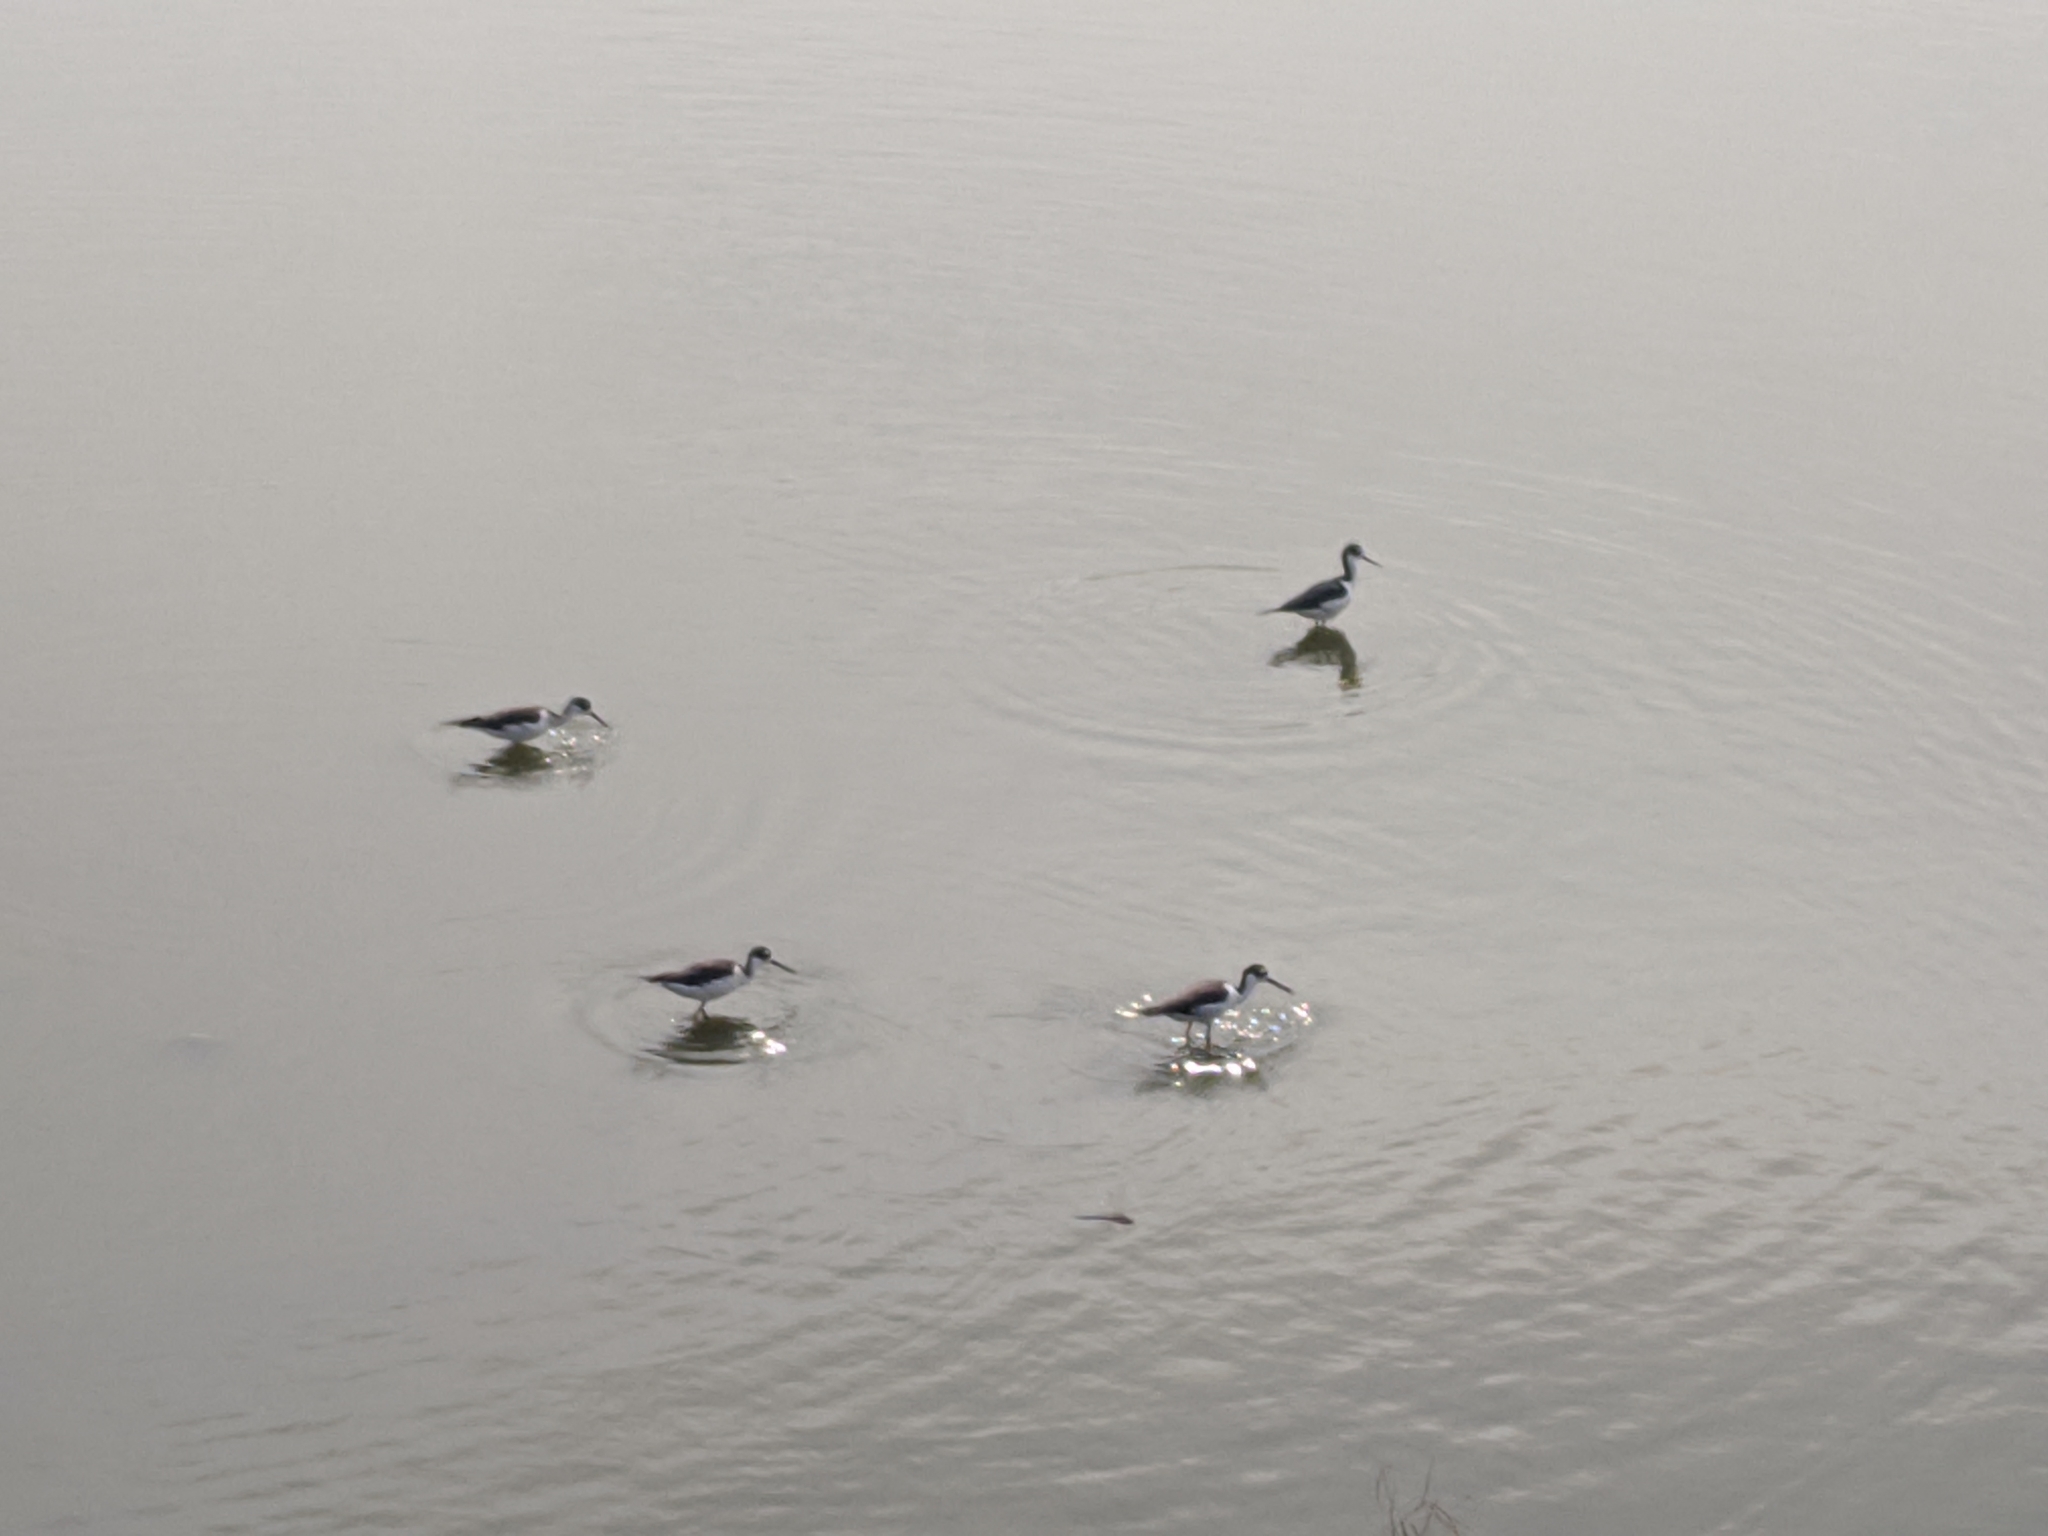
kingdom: Animalia
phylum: Chordata
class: Aves
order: Charadriiformes
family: Recurvirostridae
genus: Himantopus
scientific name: Himantopus mexicanus
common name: Black-necked stilt
